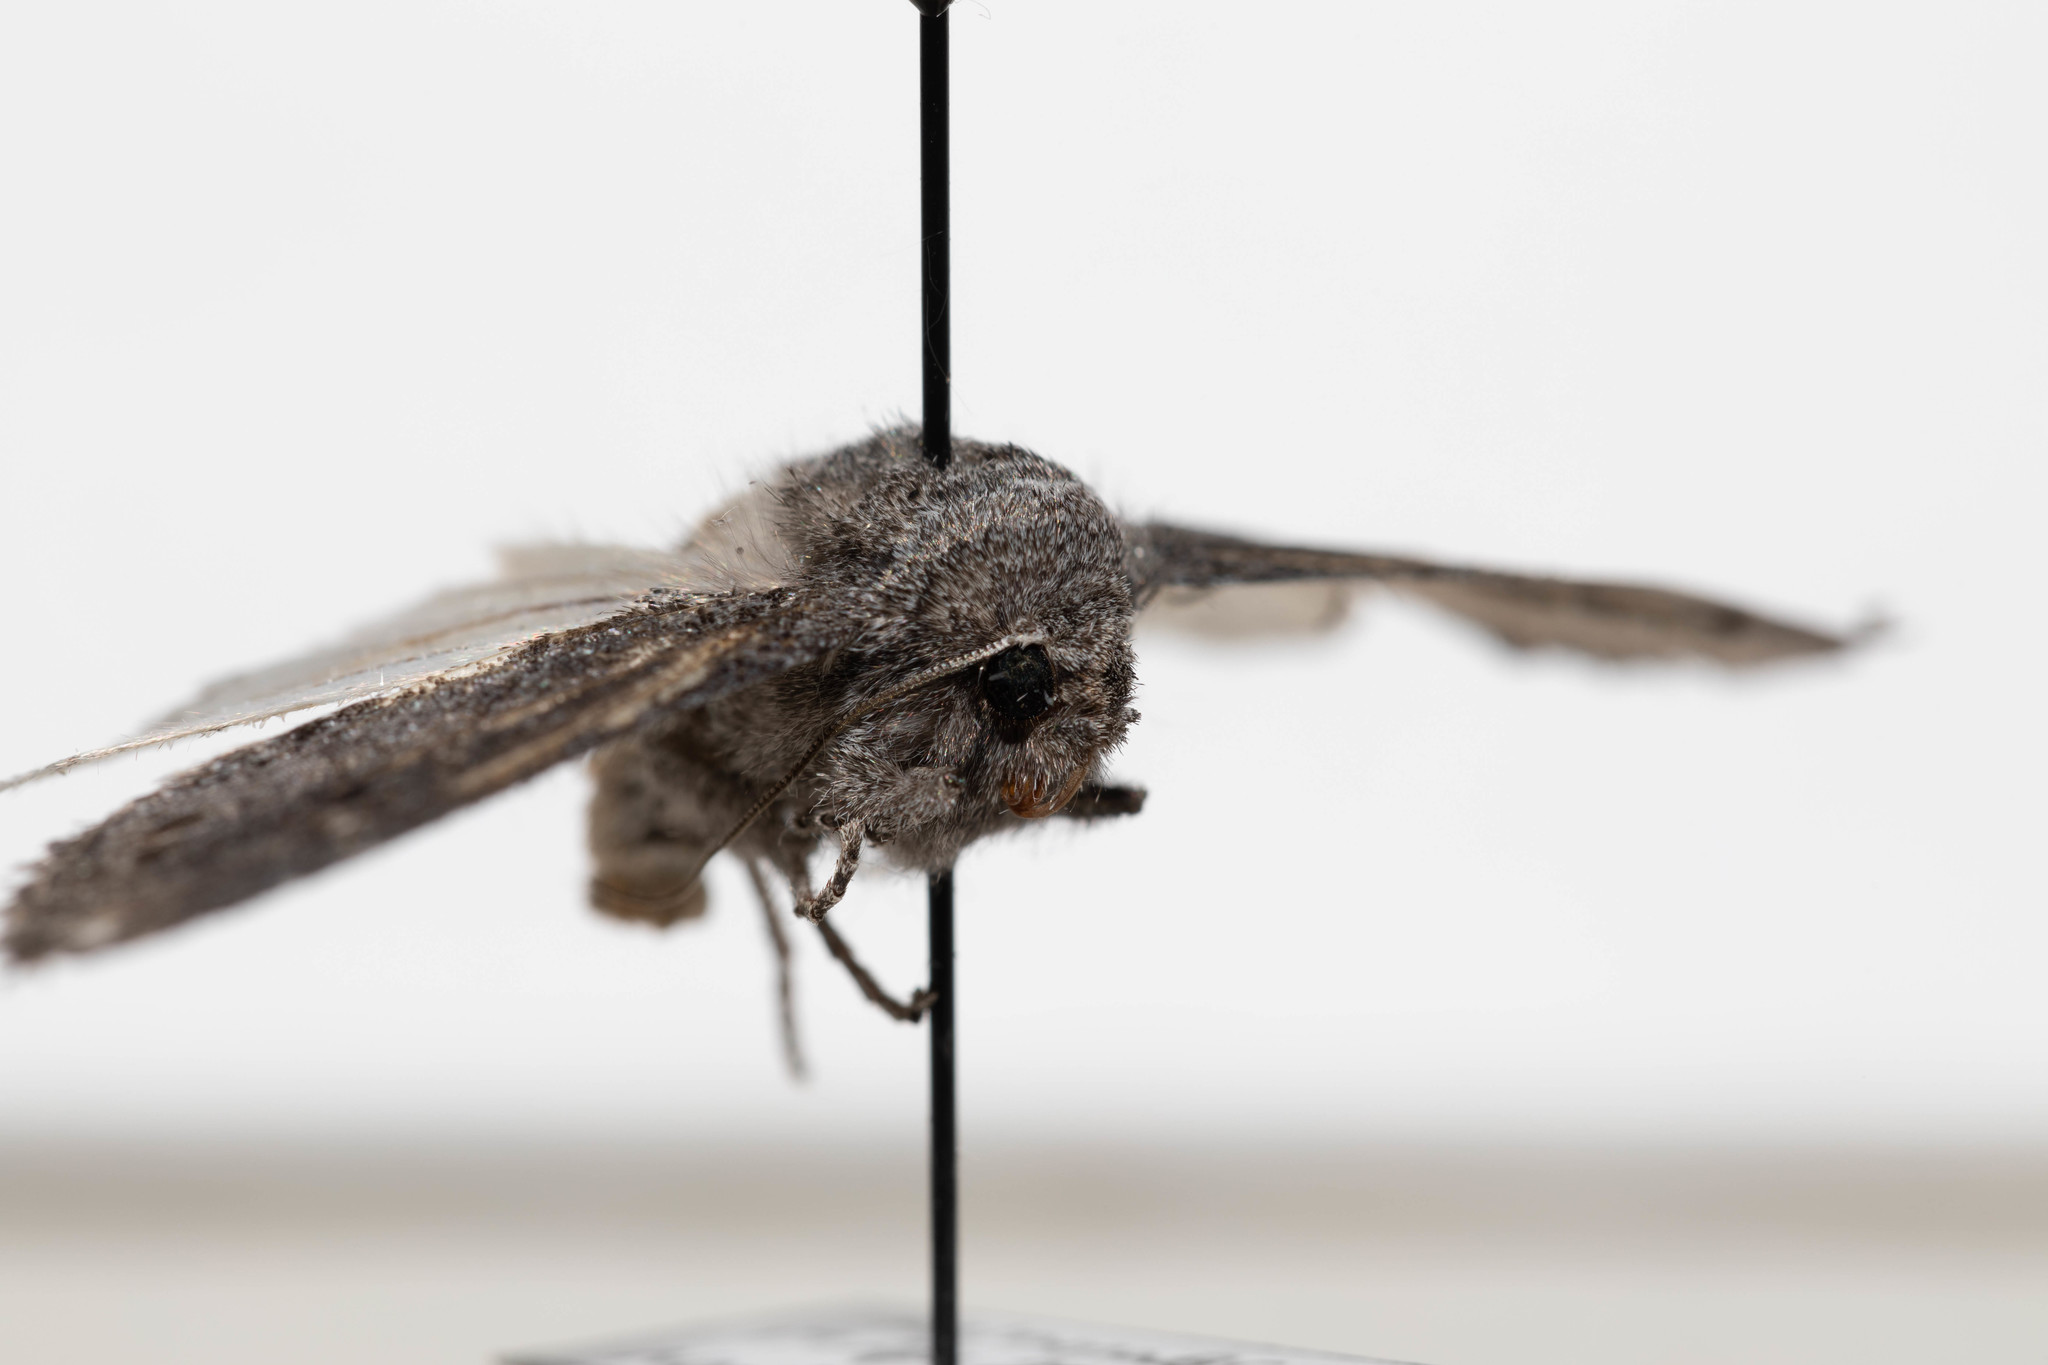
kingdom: Animalia
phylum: Arthropoda
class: Insecta
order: Lepidoptera
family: Noctuidae
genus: Egira
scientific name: Egira curialis
